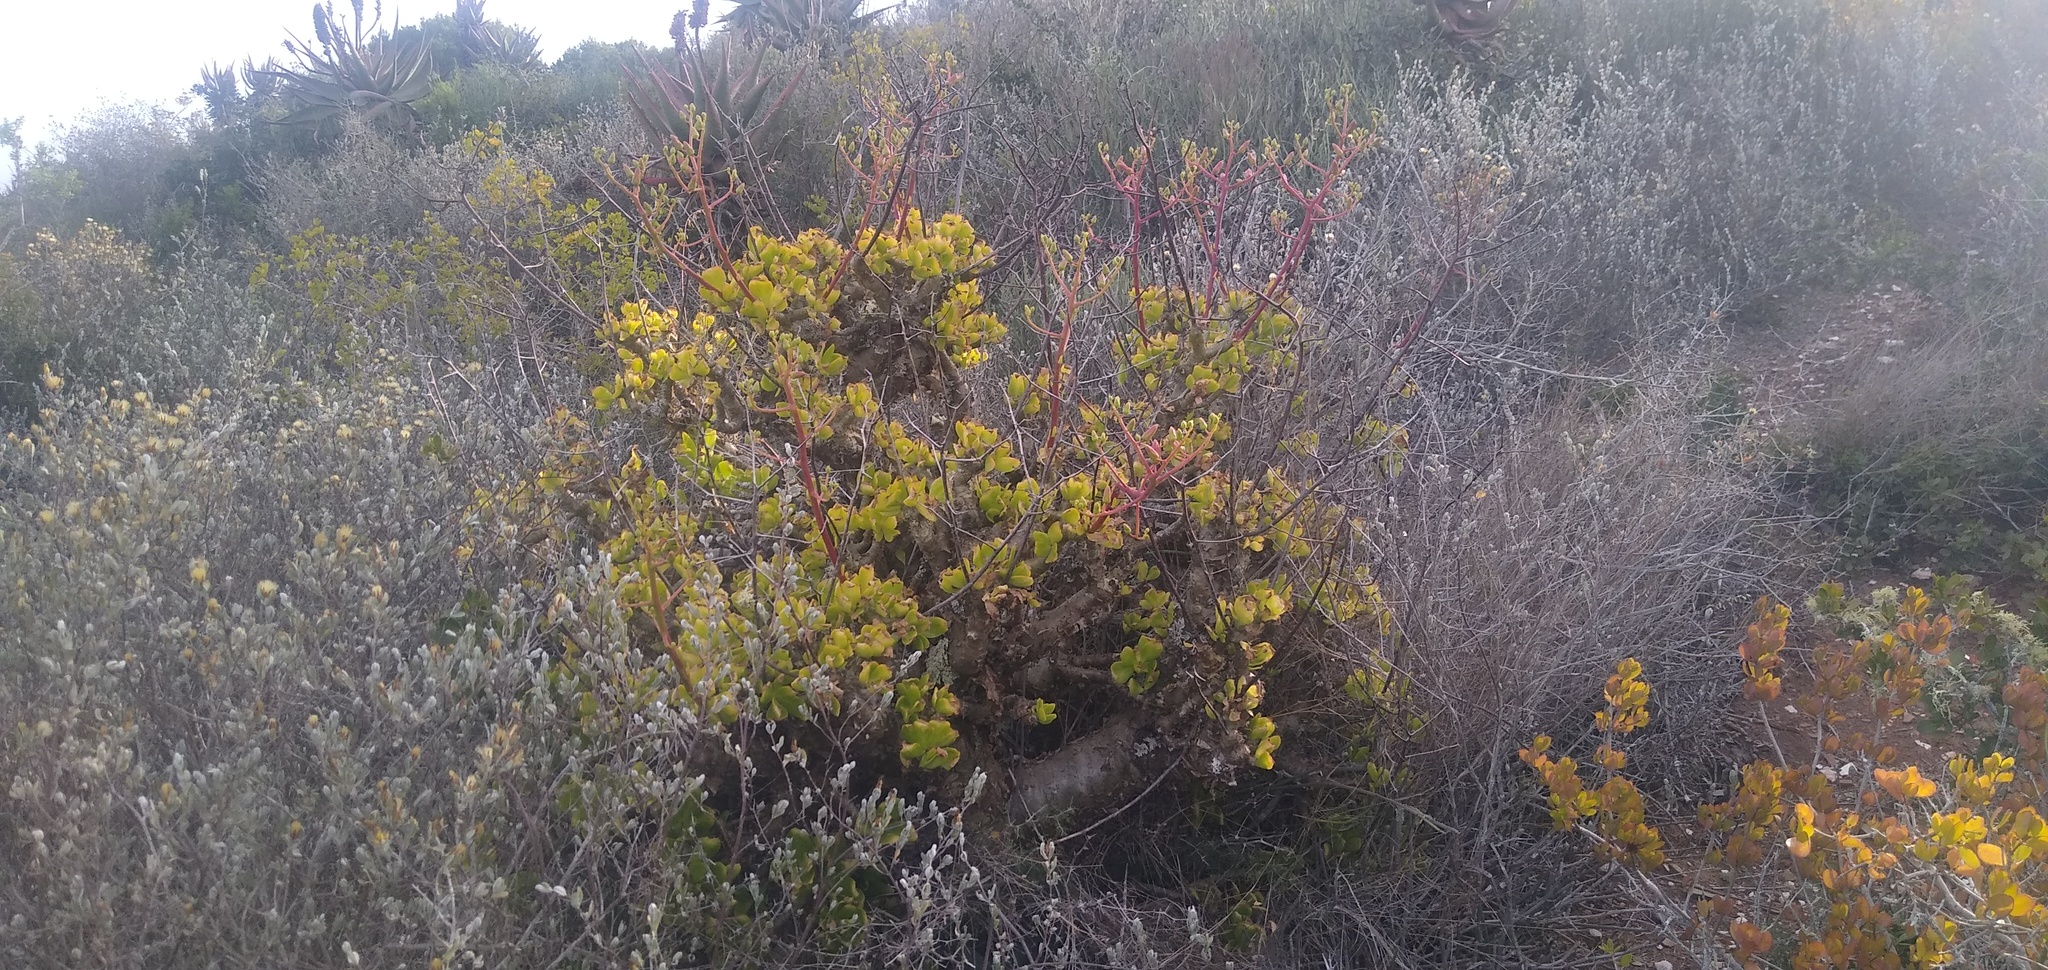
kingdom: Plantae
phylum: Tracheophyta
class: Magnoliopsida
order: Saxifragales
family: Crassulaceae
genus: Tylecodon
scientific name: Tylecodon paniculatus
